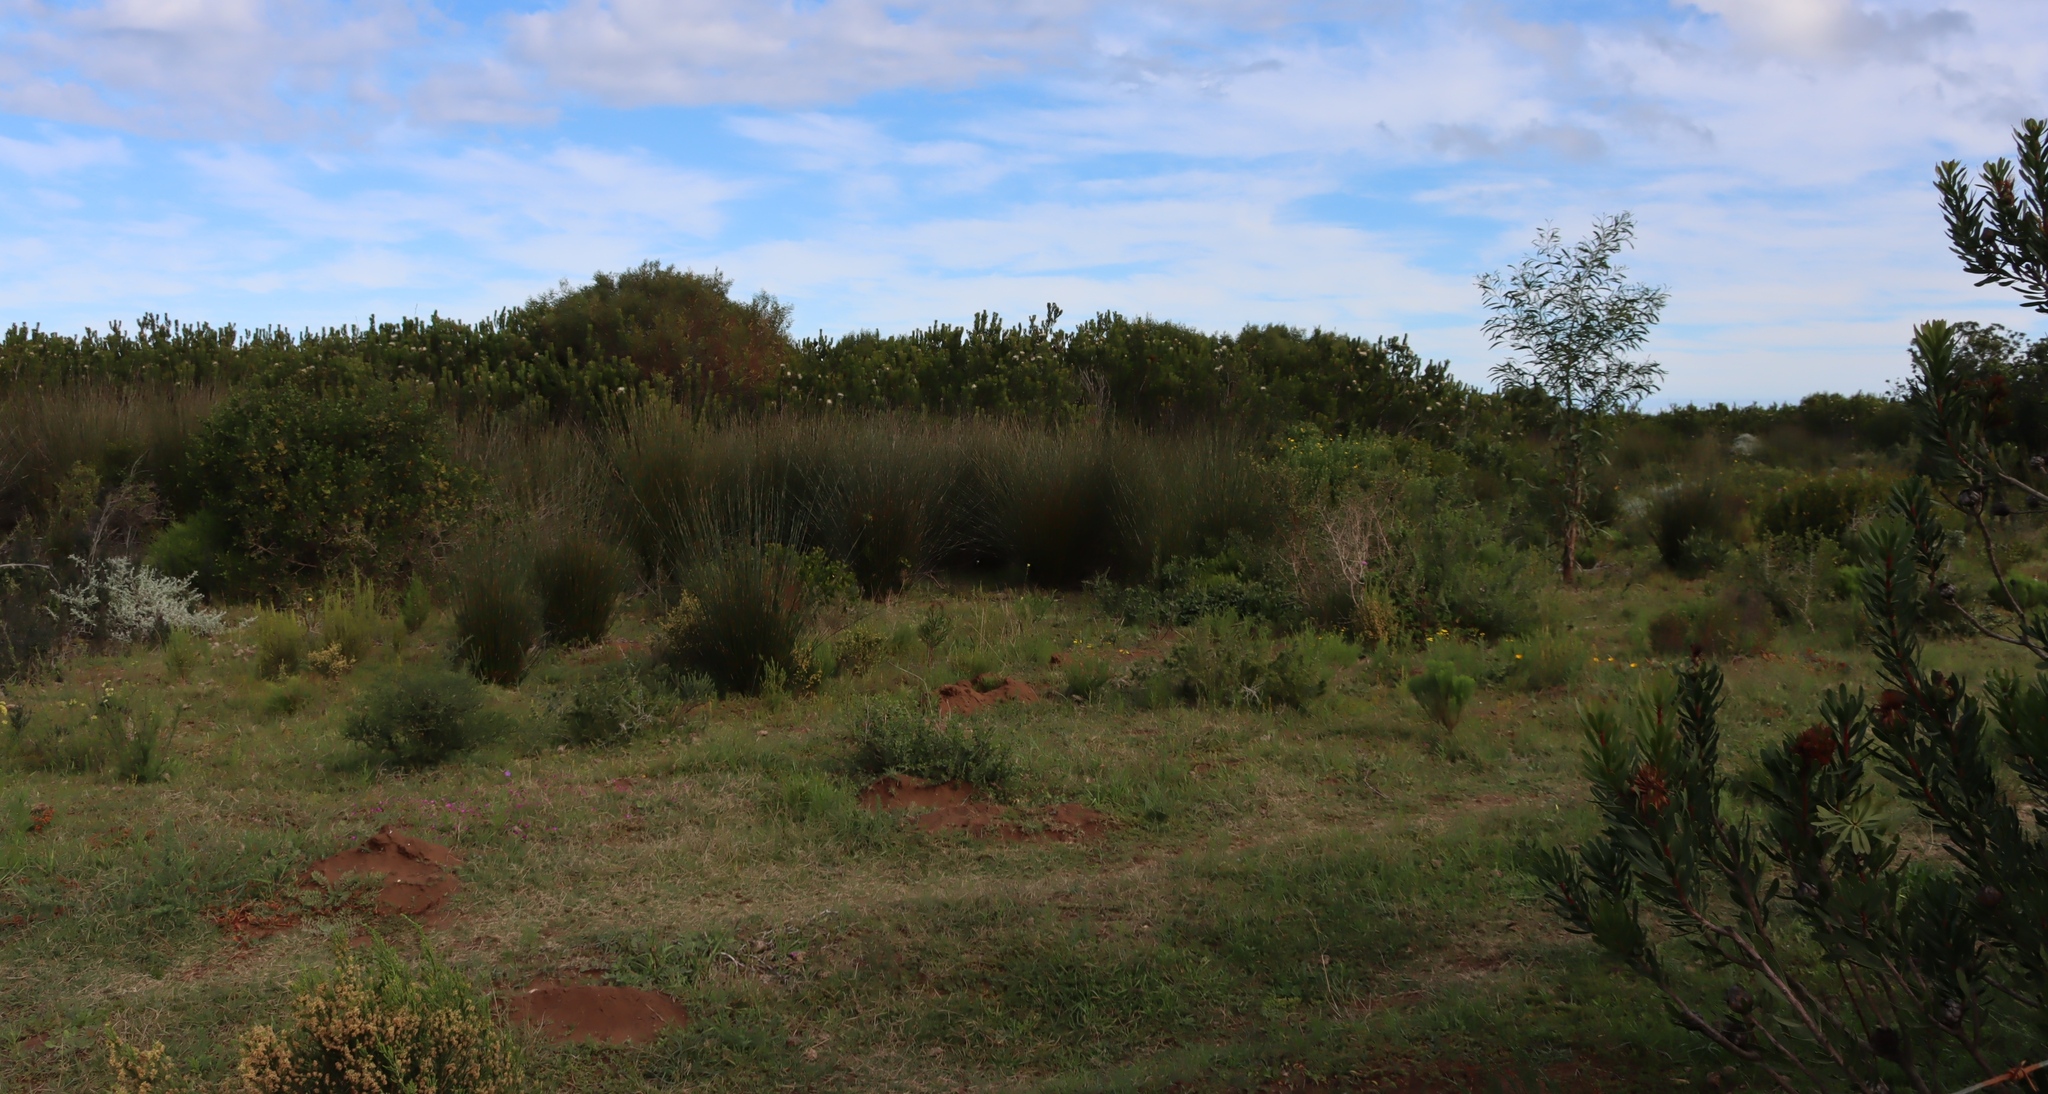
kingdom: Plantae
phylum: Tracheophyta
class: Magnoliopsida
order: Fabales
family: Fabaceae
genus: Acacia
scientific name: Acacia saligna
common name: Orange wattle
